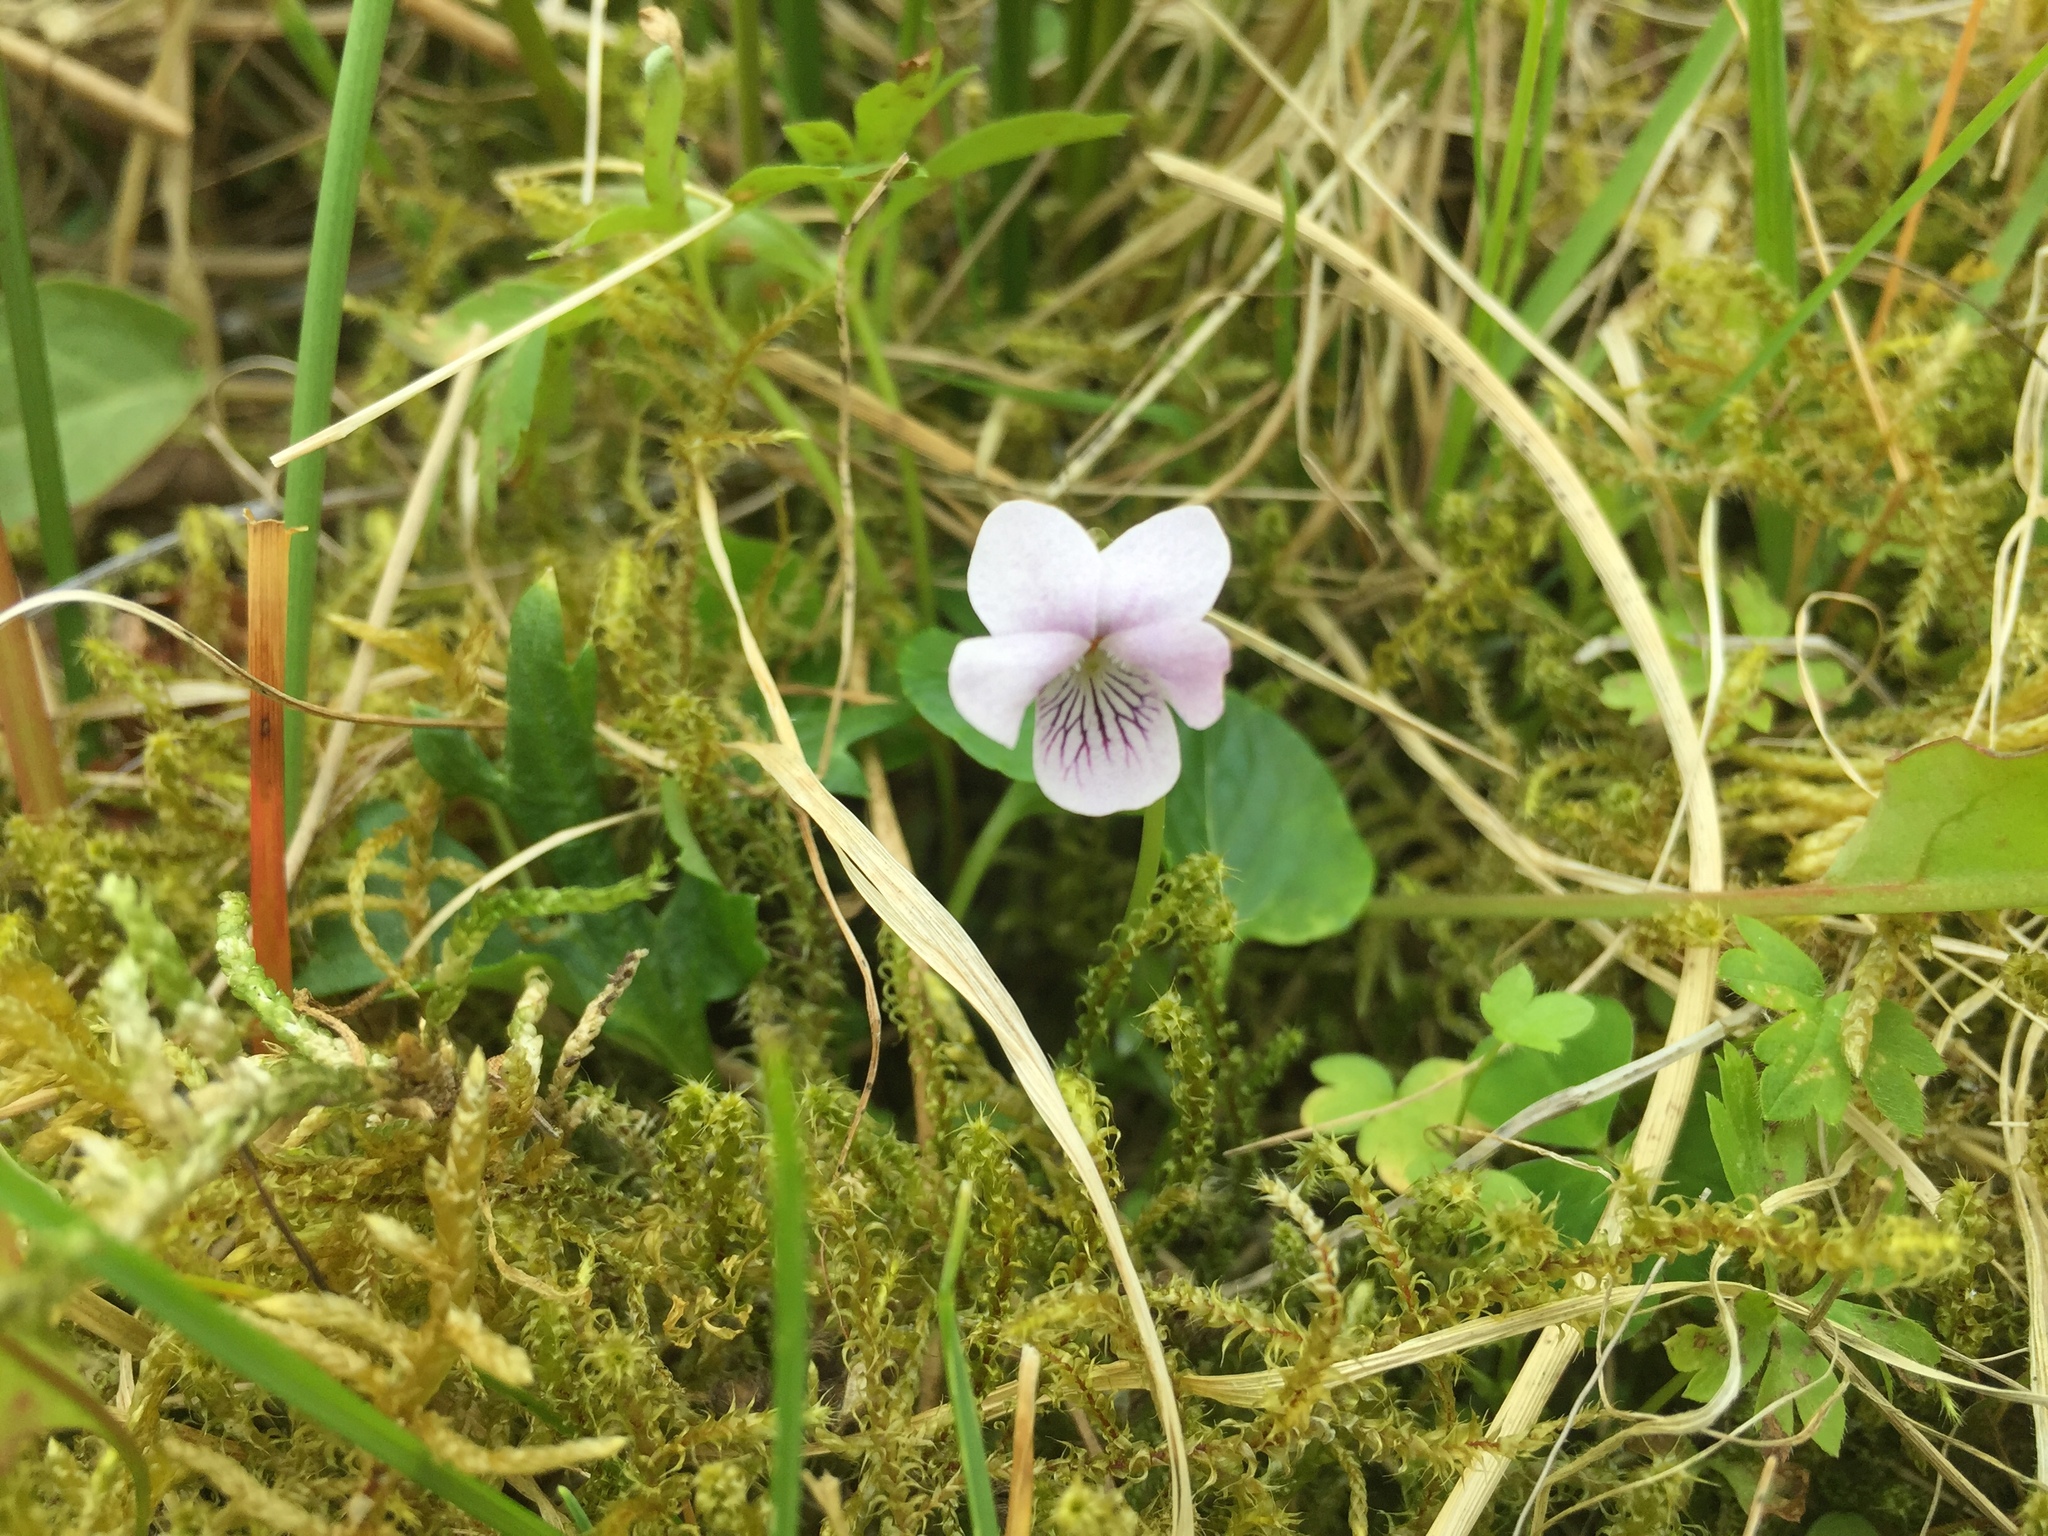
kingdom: Plantae
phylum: Tracheophyta
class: Magnoliopsida
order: Malpighiales
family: Violaceae
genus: Viola
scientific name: Viola palustris
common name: Marsh violet
